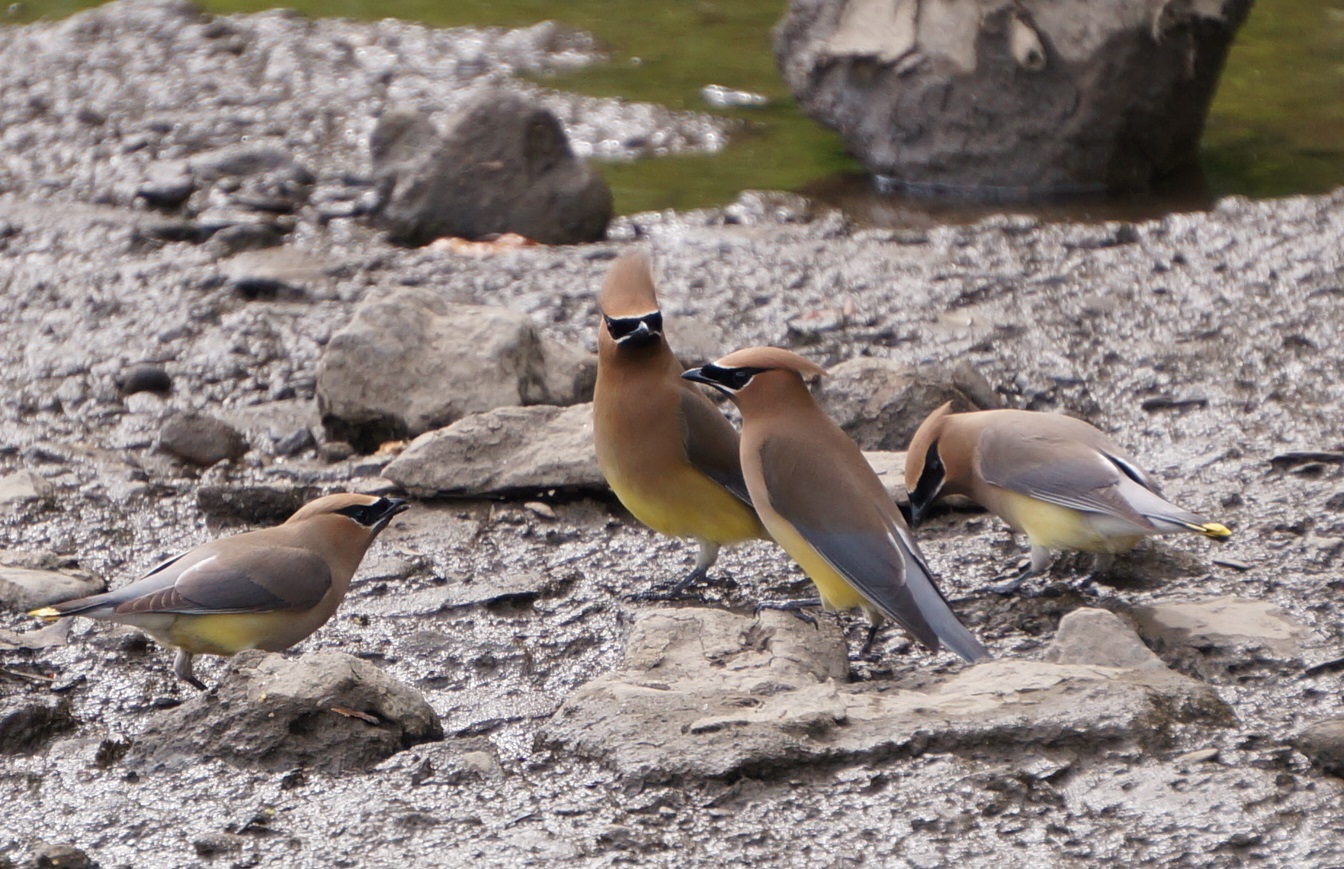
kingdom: Animalia
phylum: Chordata
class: Aves
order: Passeriformes
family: Bombycillidae
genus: Bombycilla
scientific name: Bombycilla cedrorum
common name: Cedar waxwing
